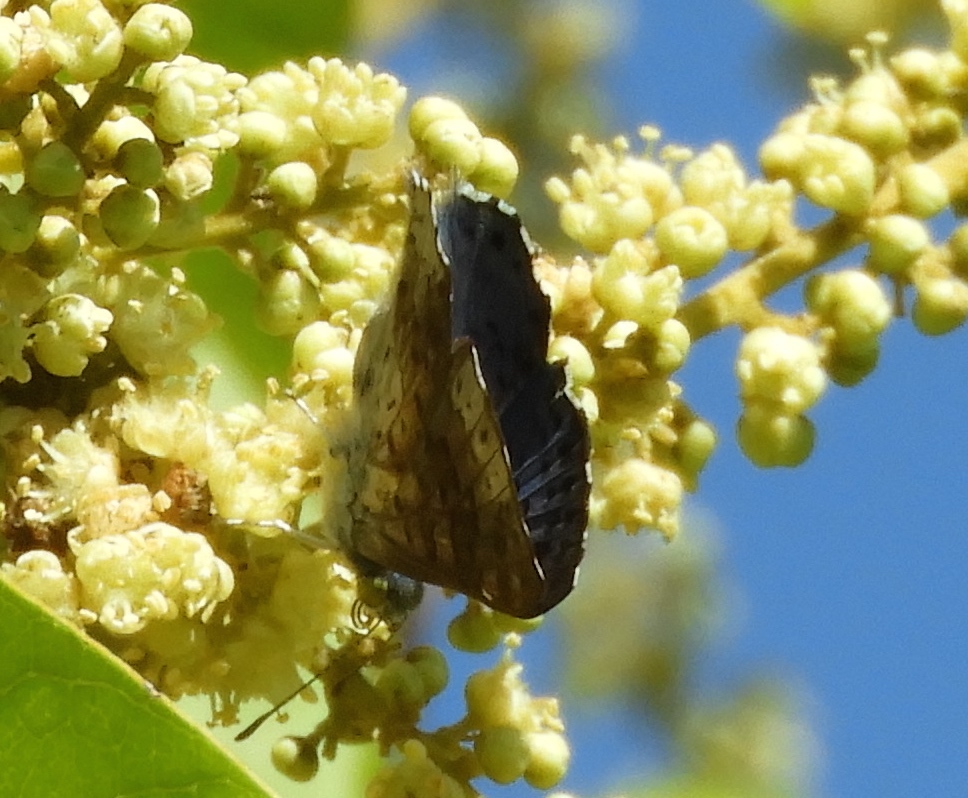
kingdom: Animalia
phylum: Arthropoda
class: Insecta
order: Lepidoptera
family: Riodinidae
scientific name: Riodinidae
